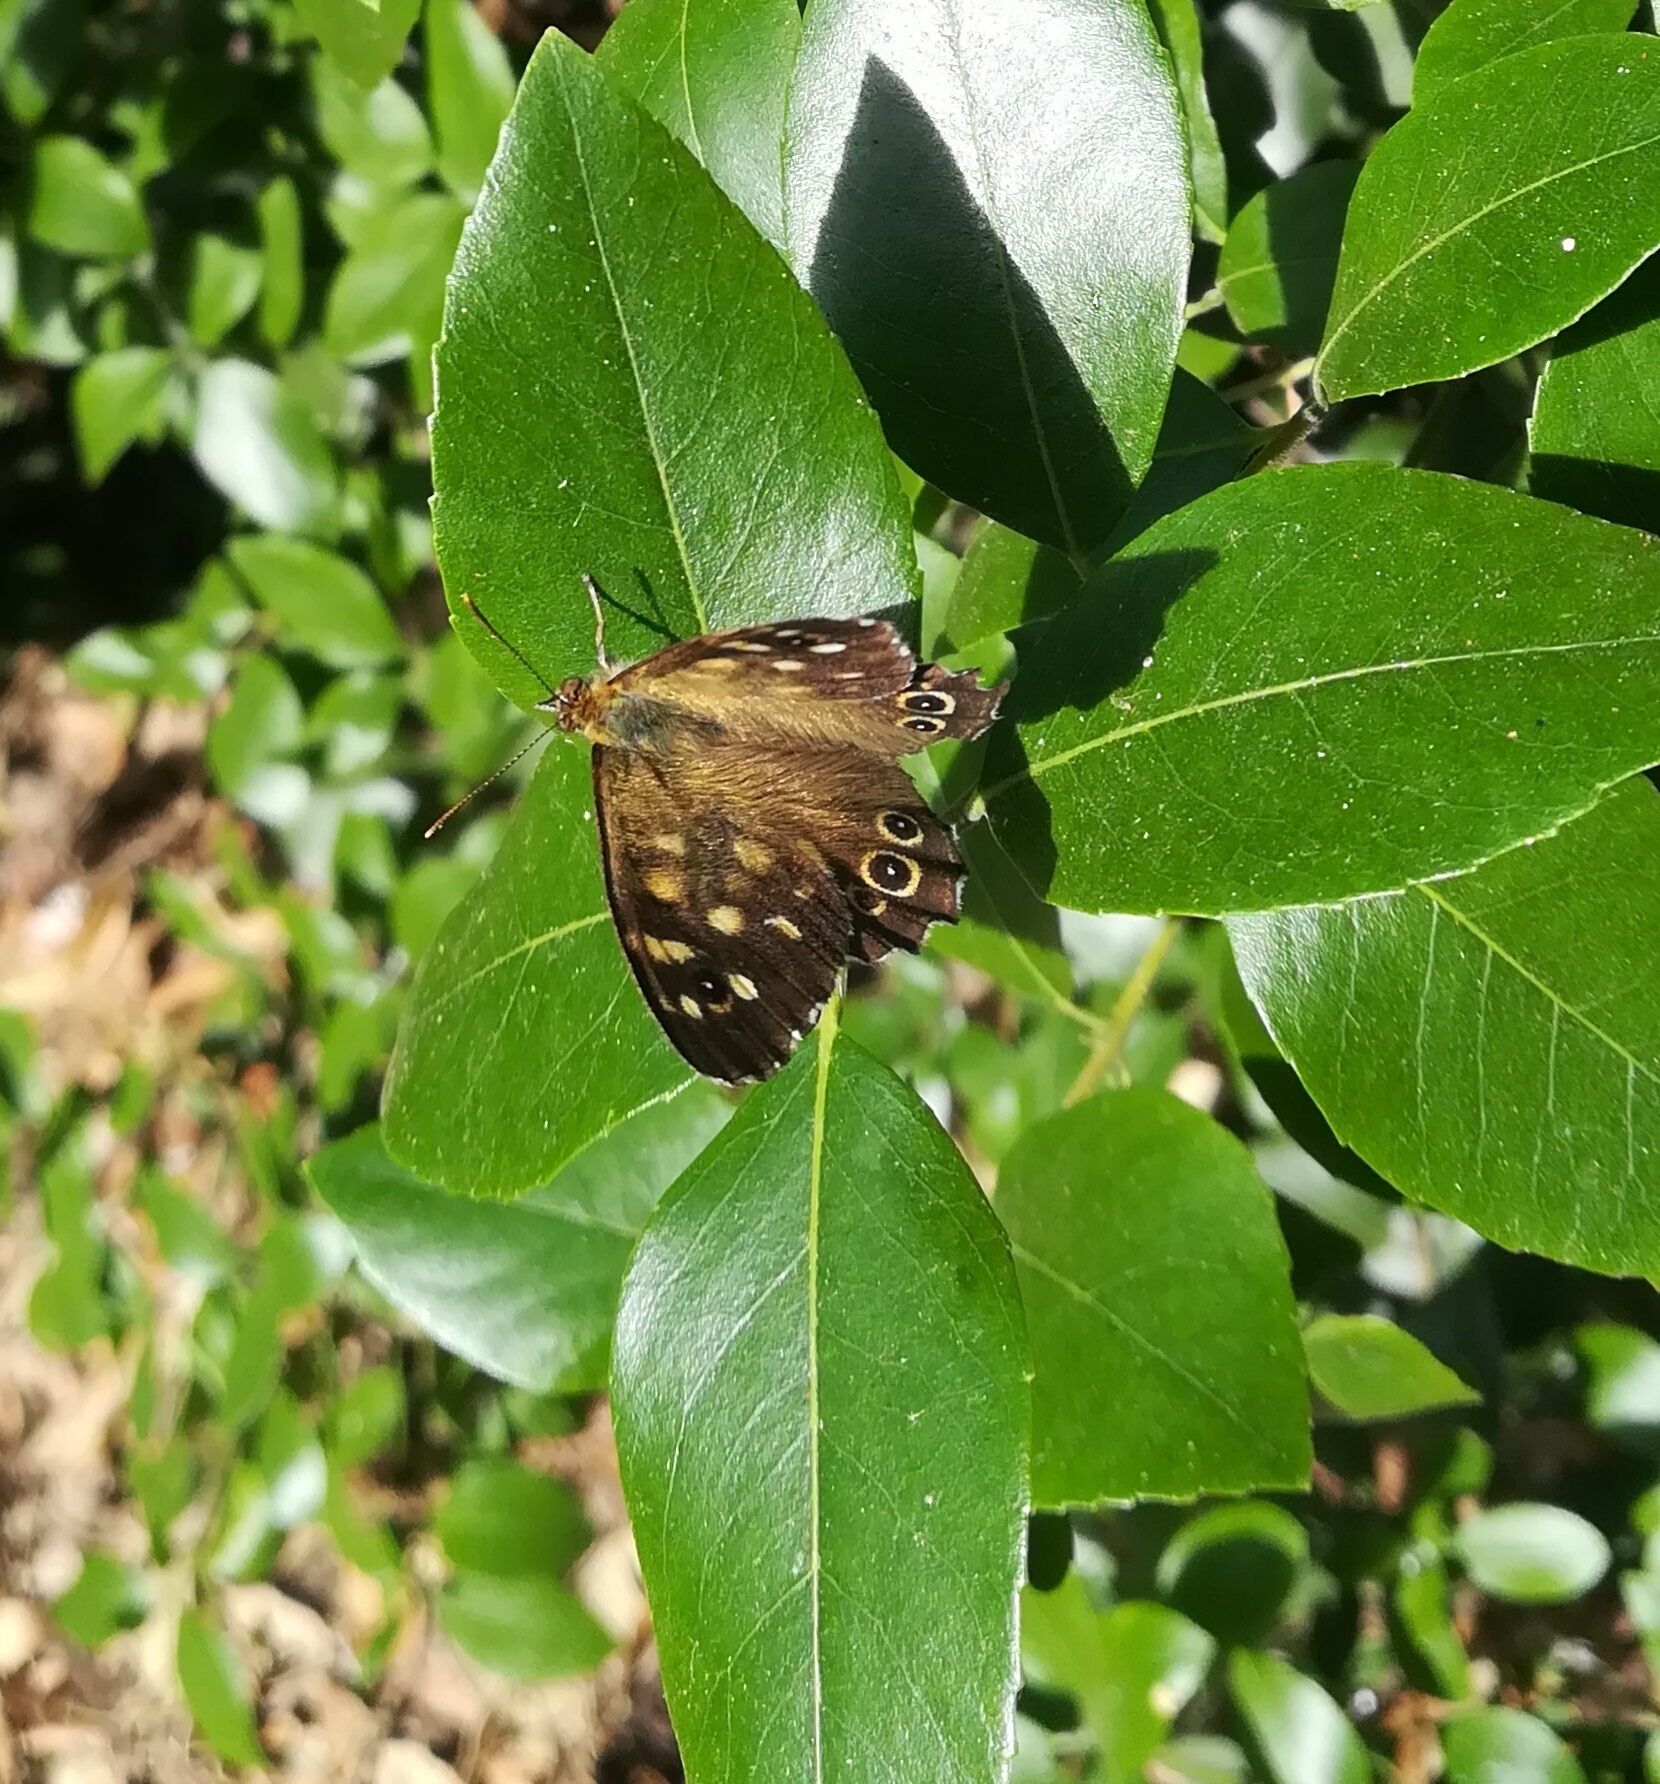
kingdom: Animalia
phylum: Arthropoda
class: Insecta
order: Lepidoptera
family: Nymphalidae
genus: Pararge
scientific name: Pararge aegeria
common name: Speckled wood
